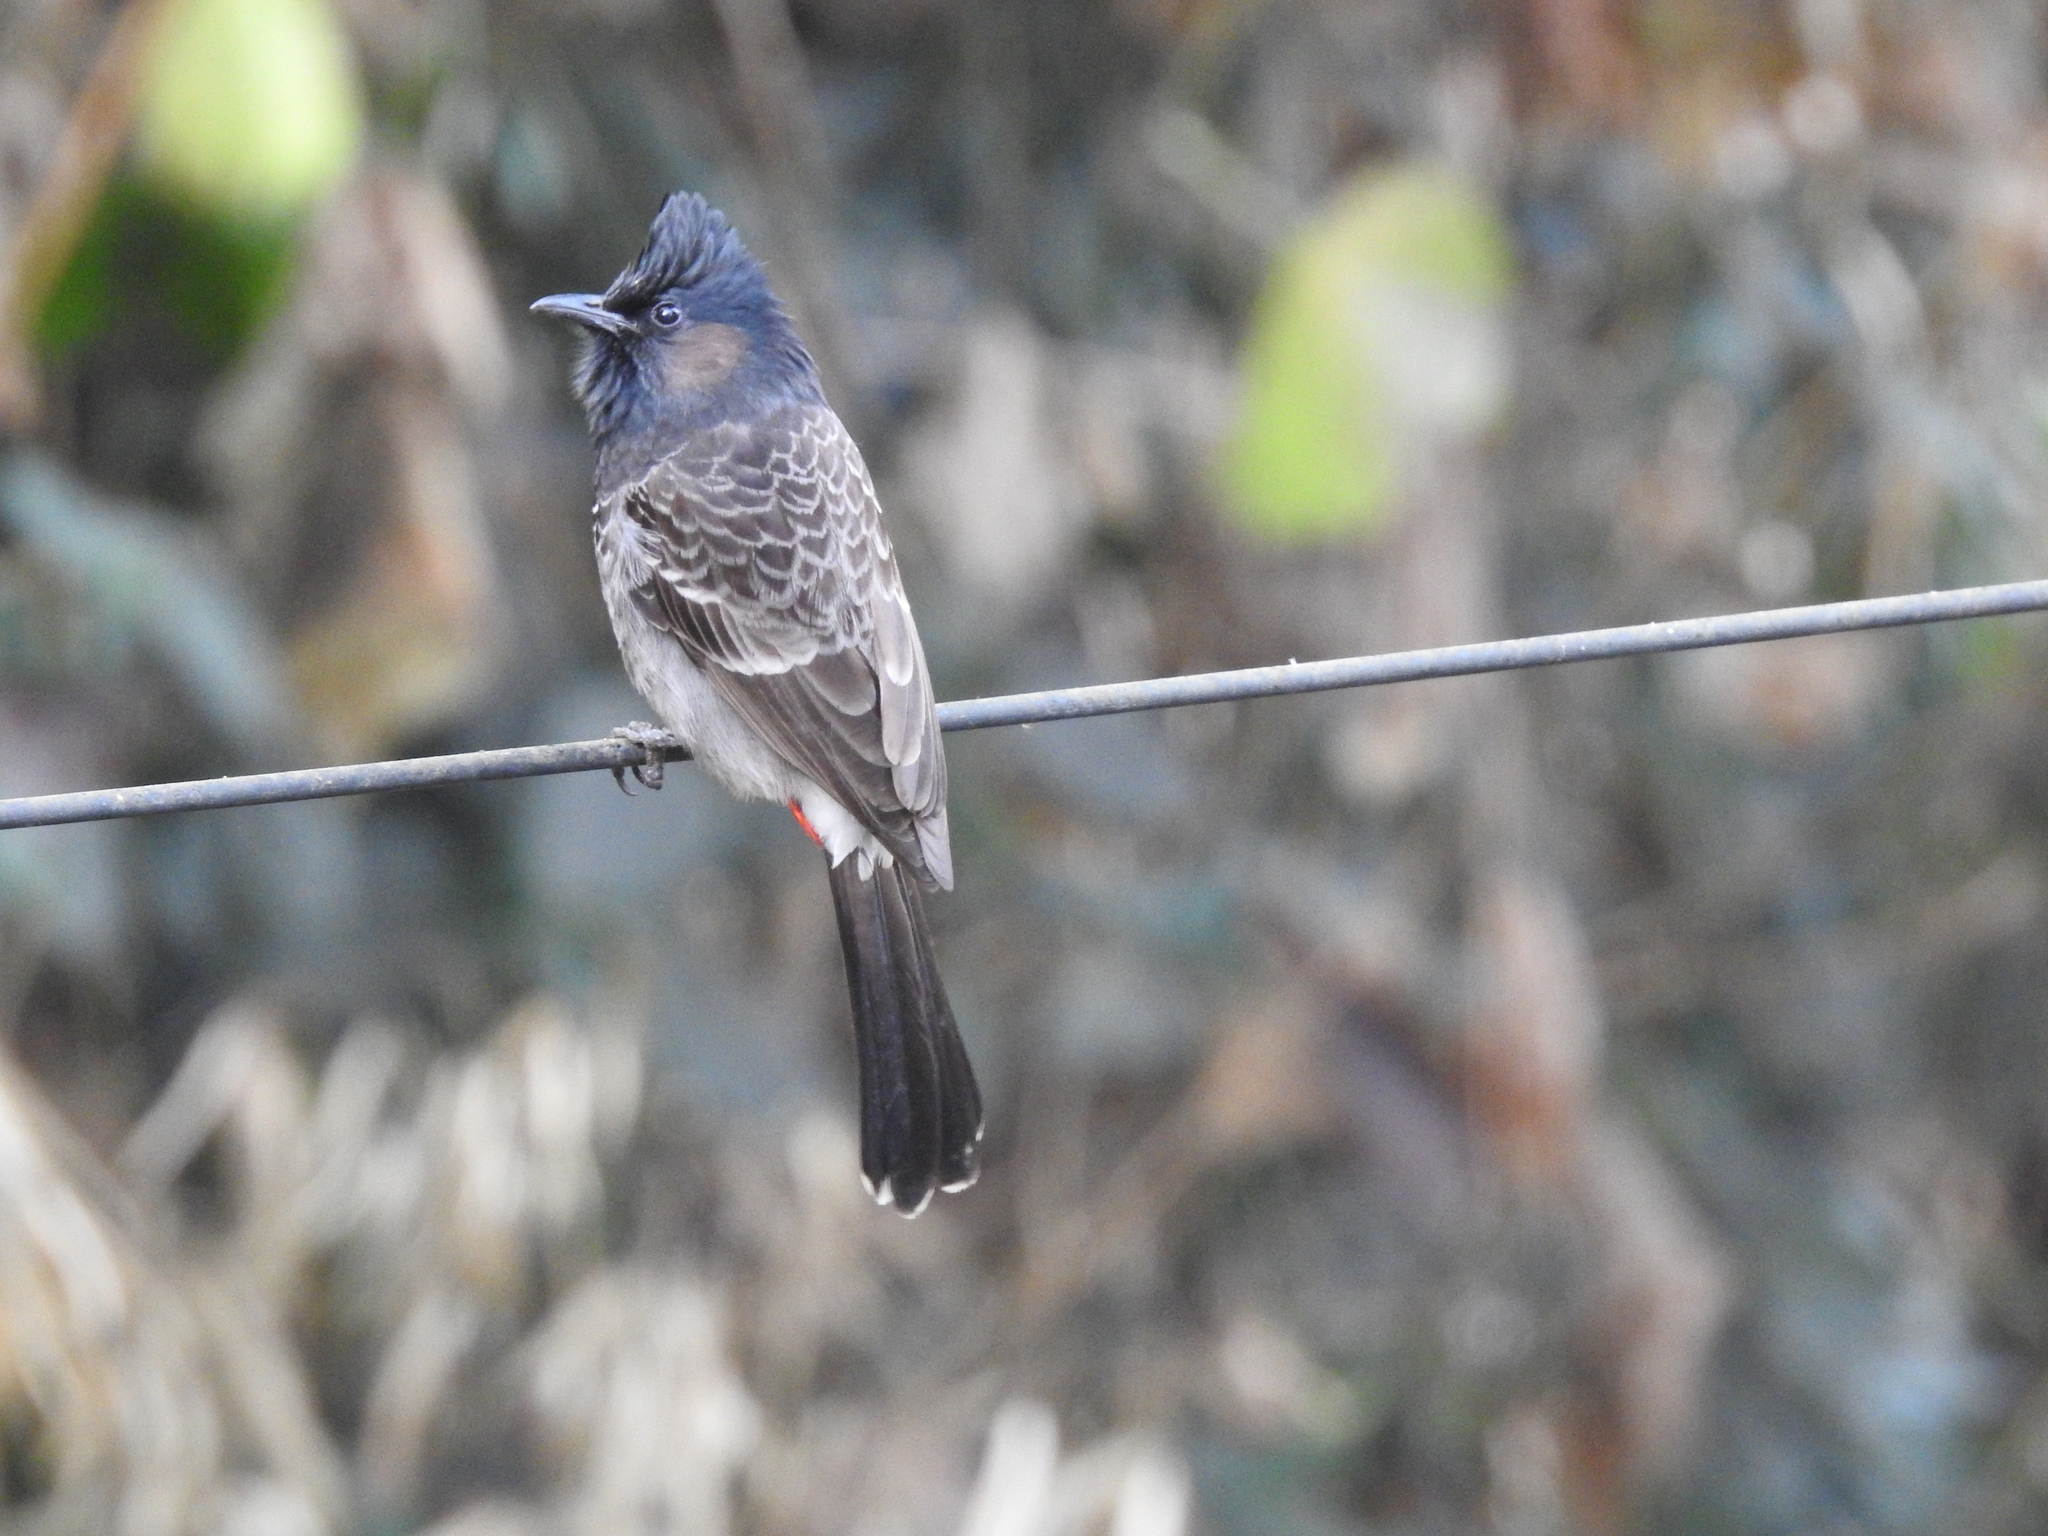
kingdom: Animalia
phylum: Chordata
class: Aves
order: Passeriformes
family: Pycnonotidae
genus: Pycnonotus
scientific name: Pycnonotus cafer
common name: Red-vented bulbul
